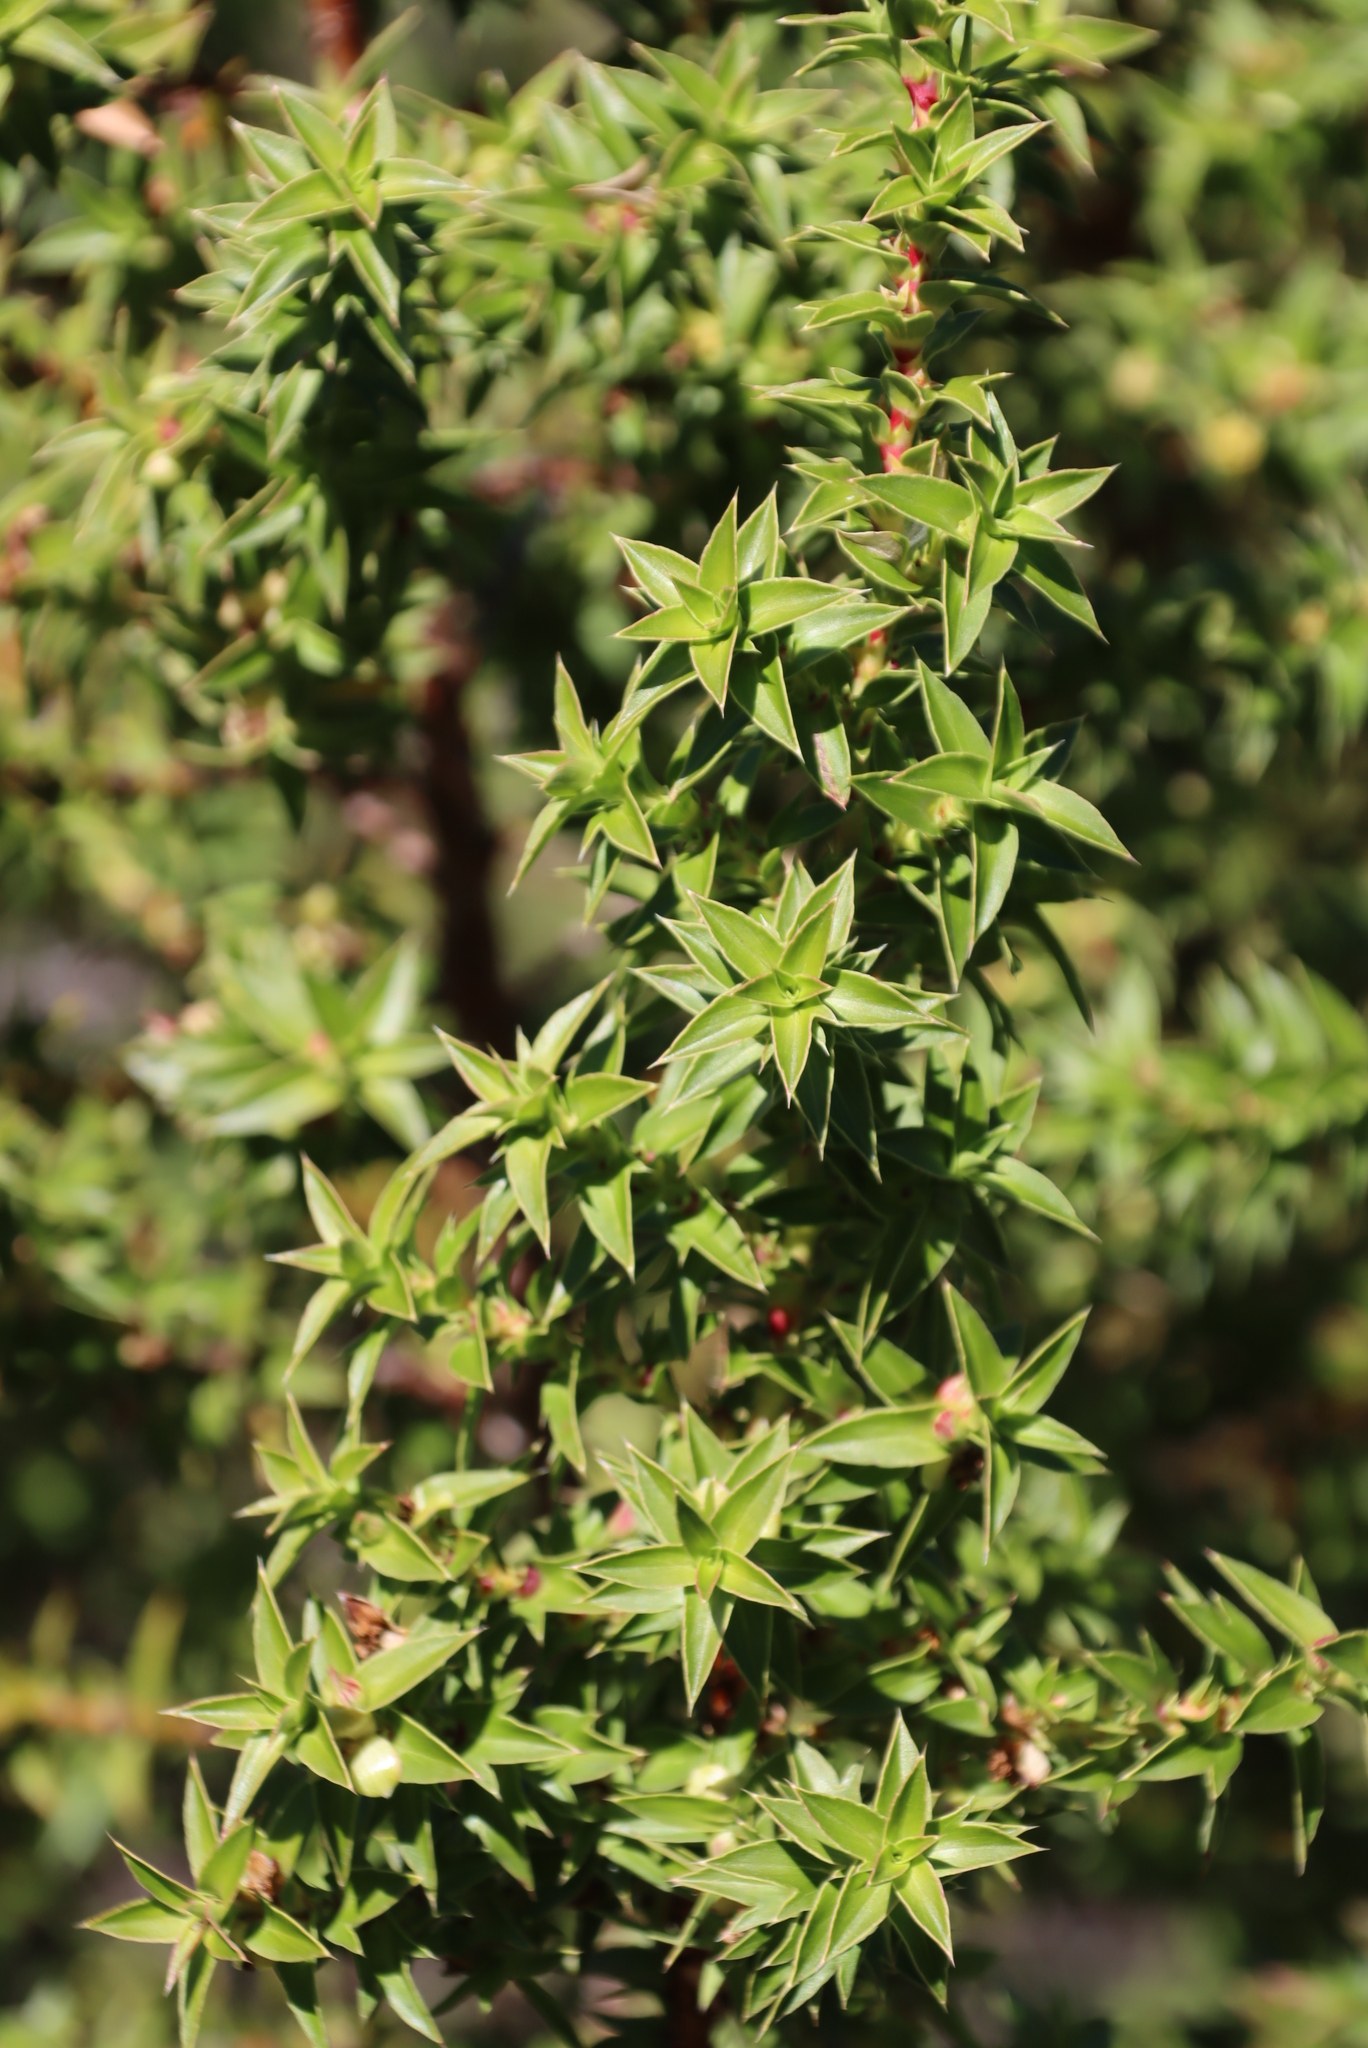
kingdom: Plantae
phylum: Tracheophyta
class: Magnoliopsida
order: Rosales
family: Rosaceae
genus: Cliffortia
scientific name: Cliffortia ruscifolia
